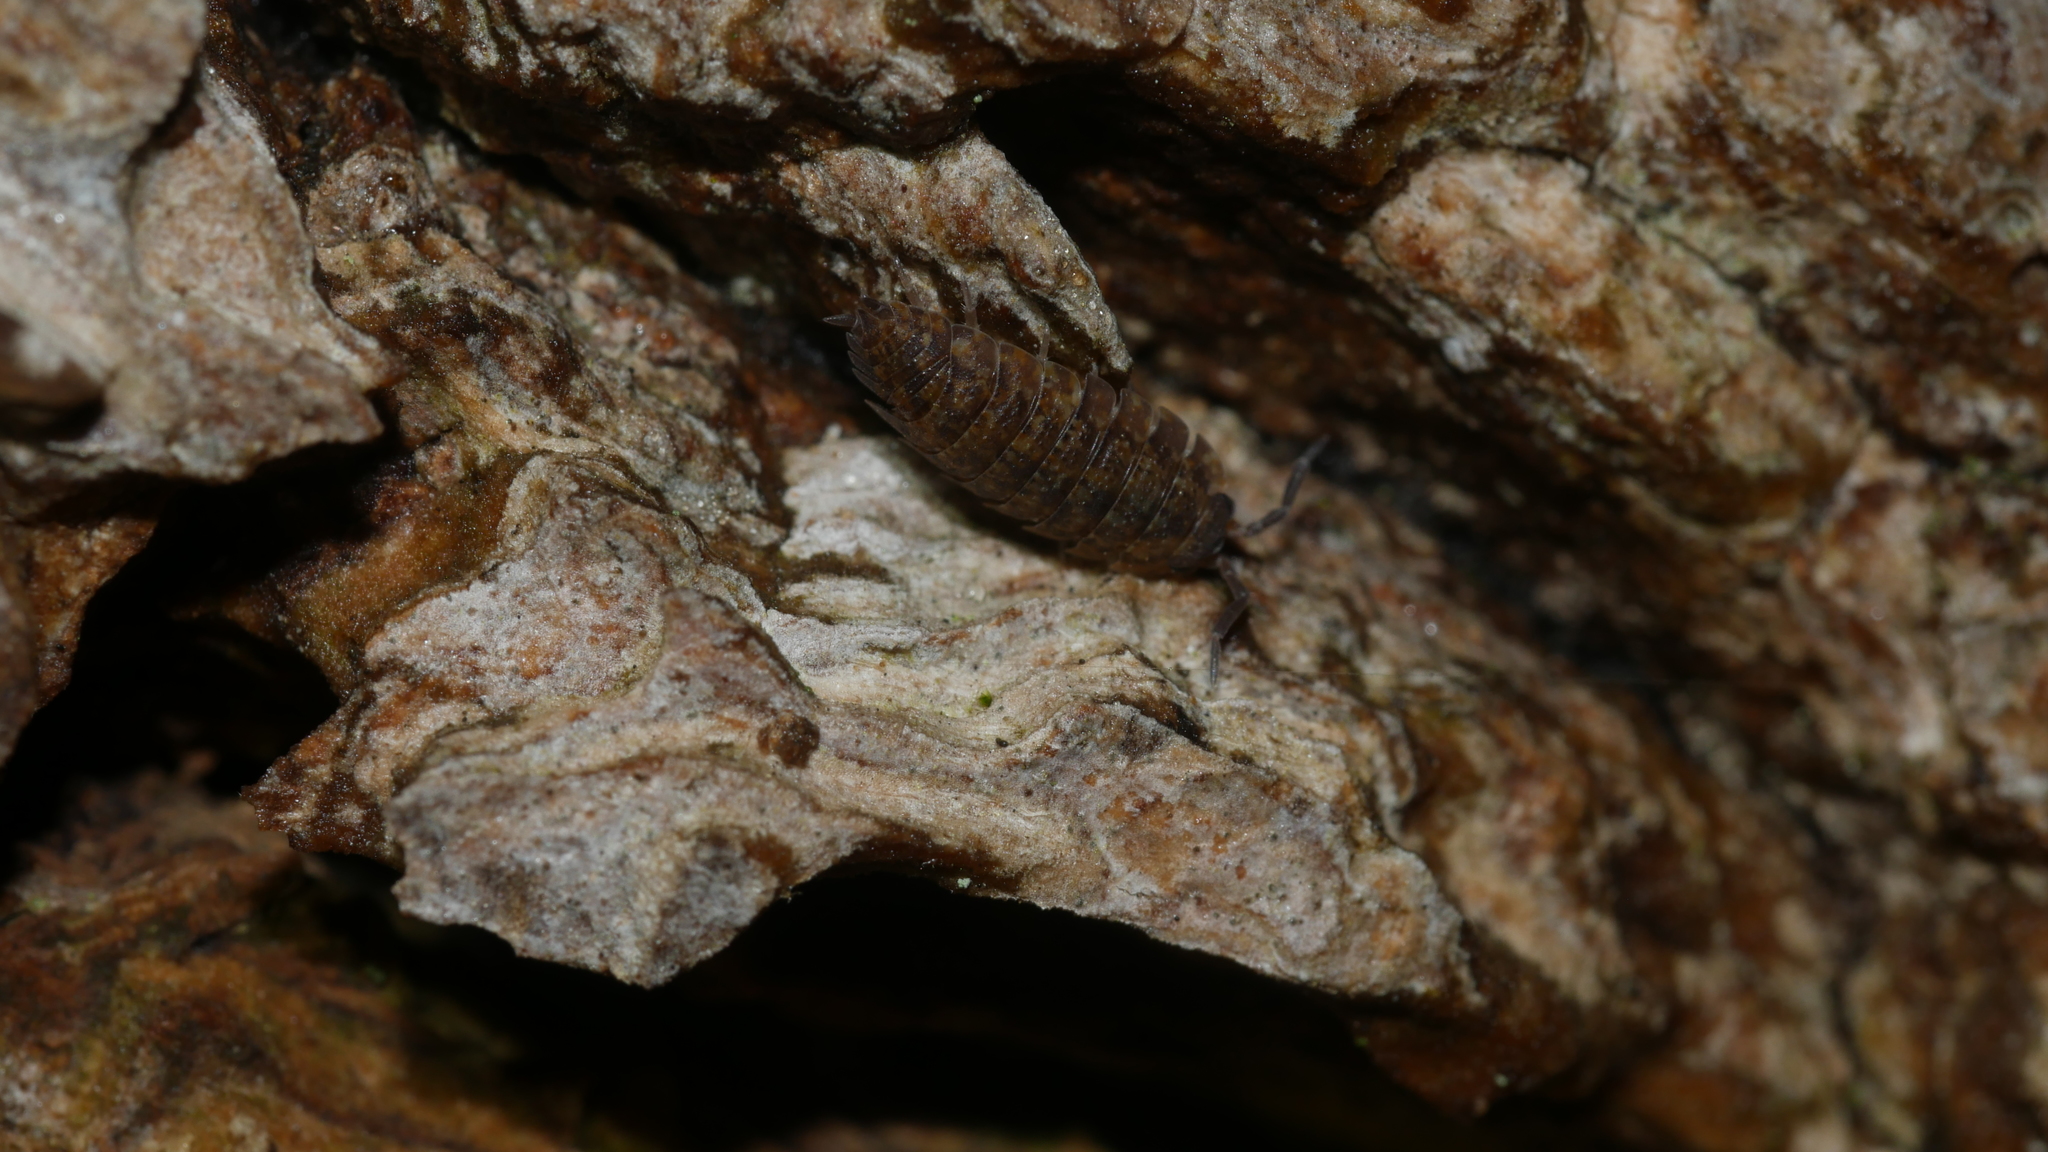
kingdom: Animalia
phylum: Arthropoda
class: Malacostraca
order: Isopoda
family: Porcellionidae
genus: Porcellio
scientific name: Porcellio scaber
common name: Common rough woodlouse
